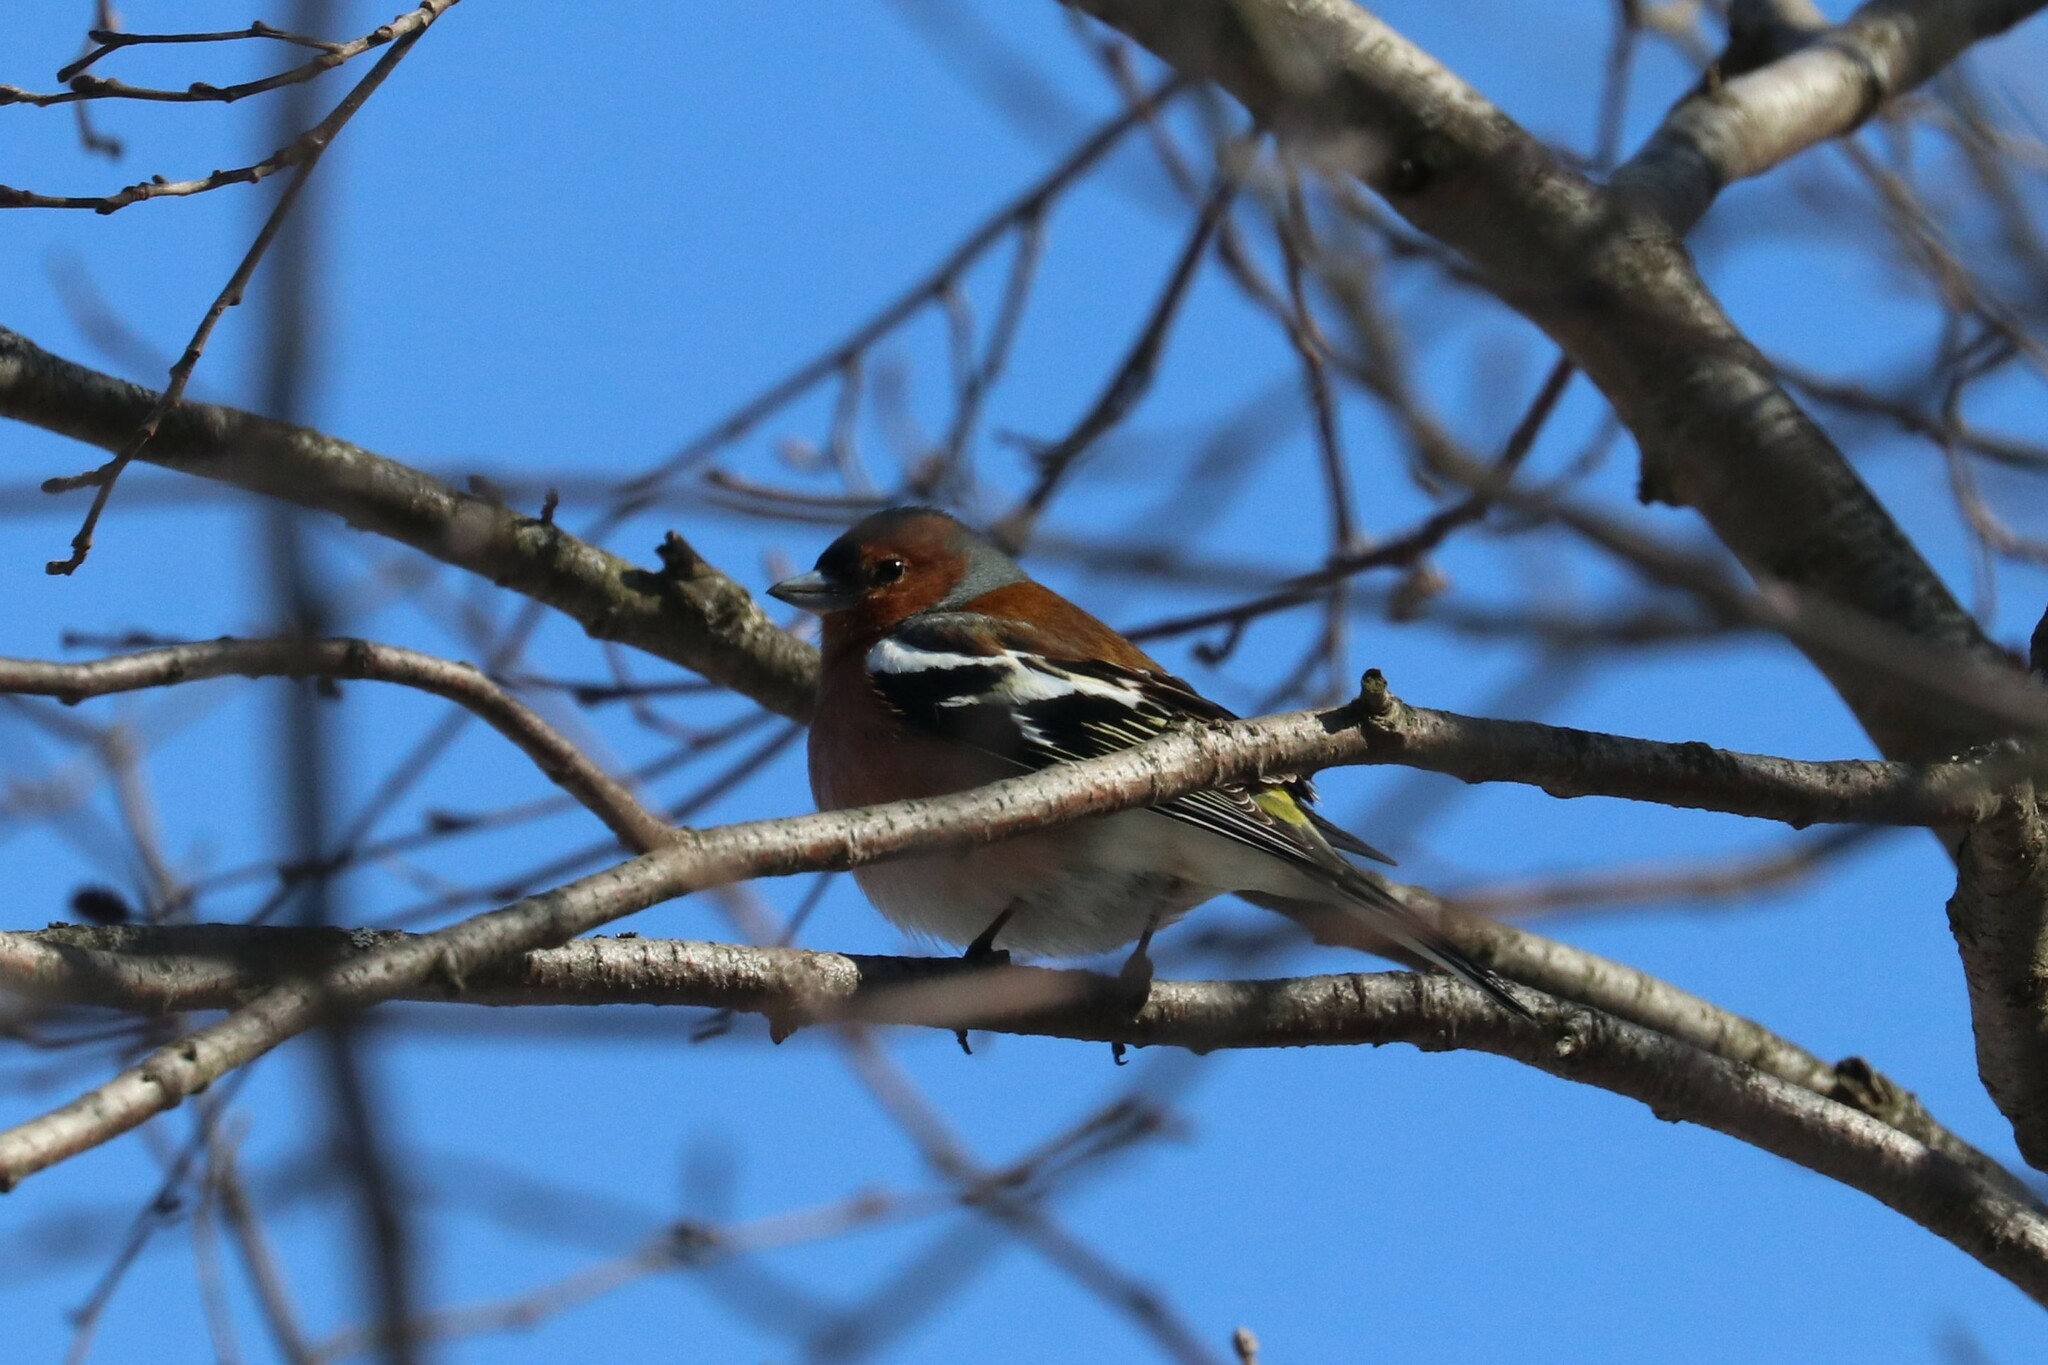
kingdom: Animalia
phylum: Chordata
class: Aves
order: Passeriformes
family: Fringillidae
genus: Fringilla
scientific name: Fringilla coelebs
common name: Common chaffinch
